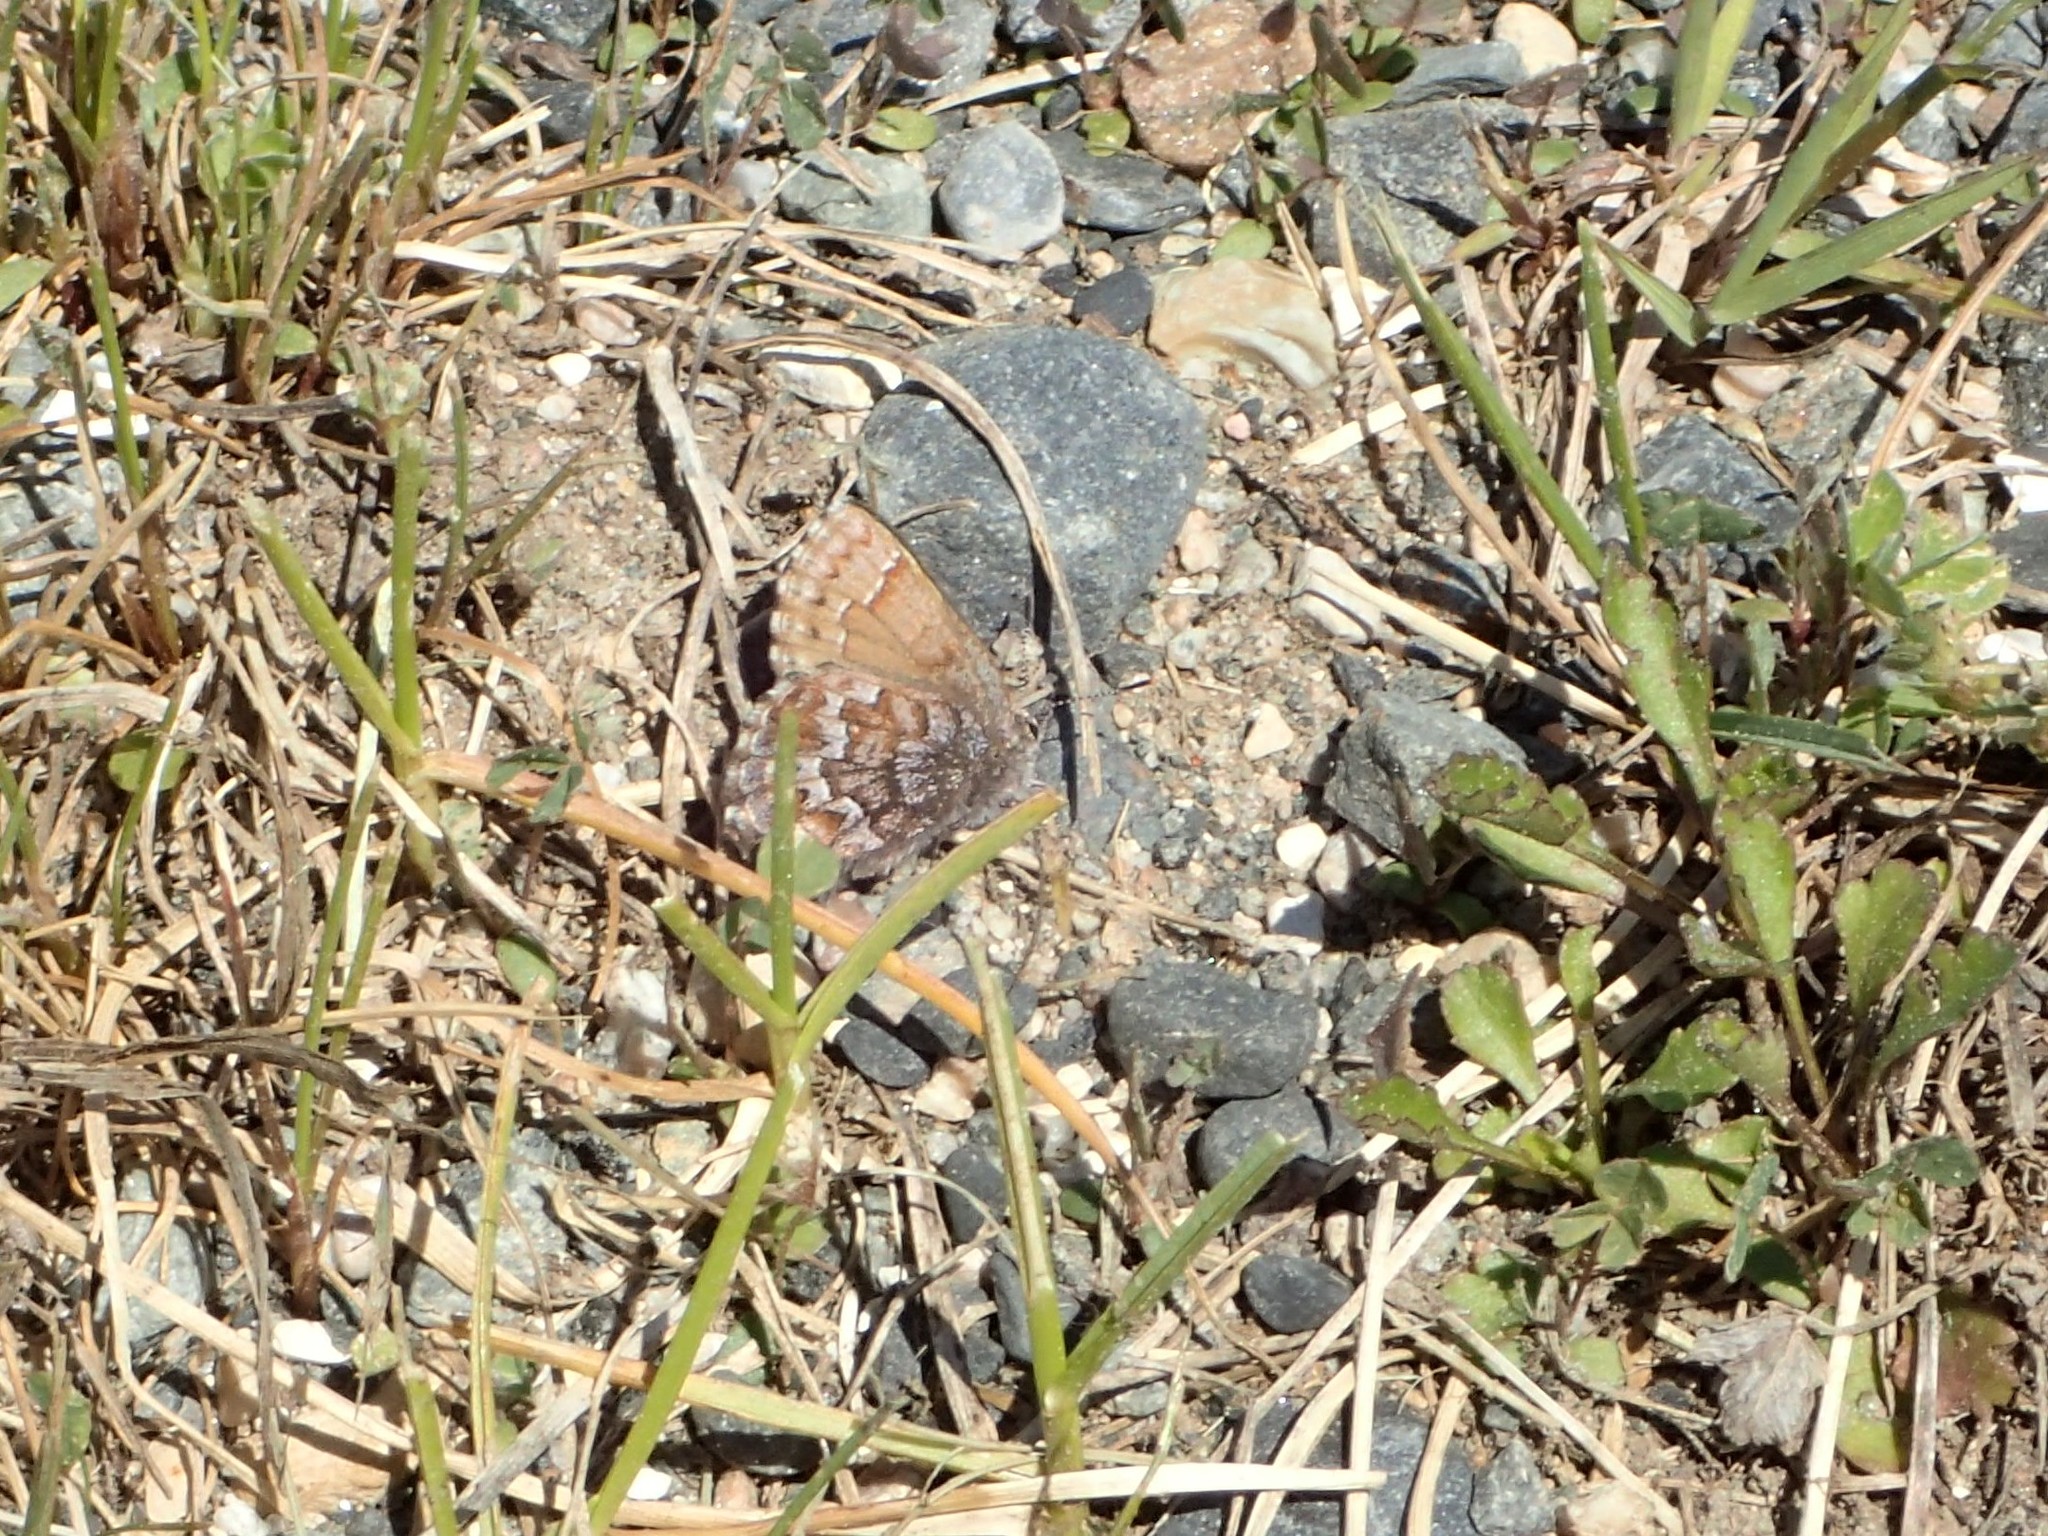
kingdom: Animalia
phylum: Arthropoda
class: Insecta
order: Lepidoptera
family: Lycaenidae
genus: Incisalia
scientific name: Incisalia niphon
